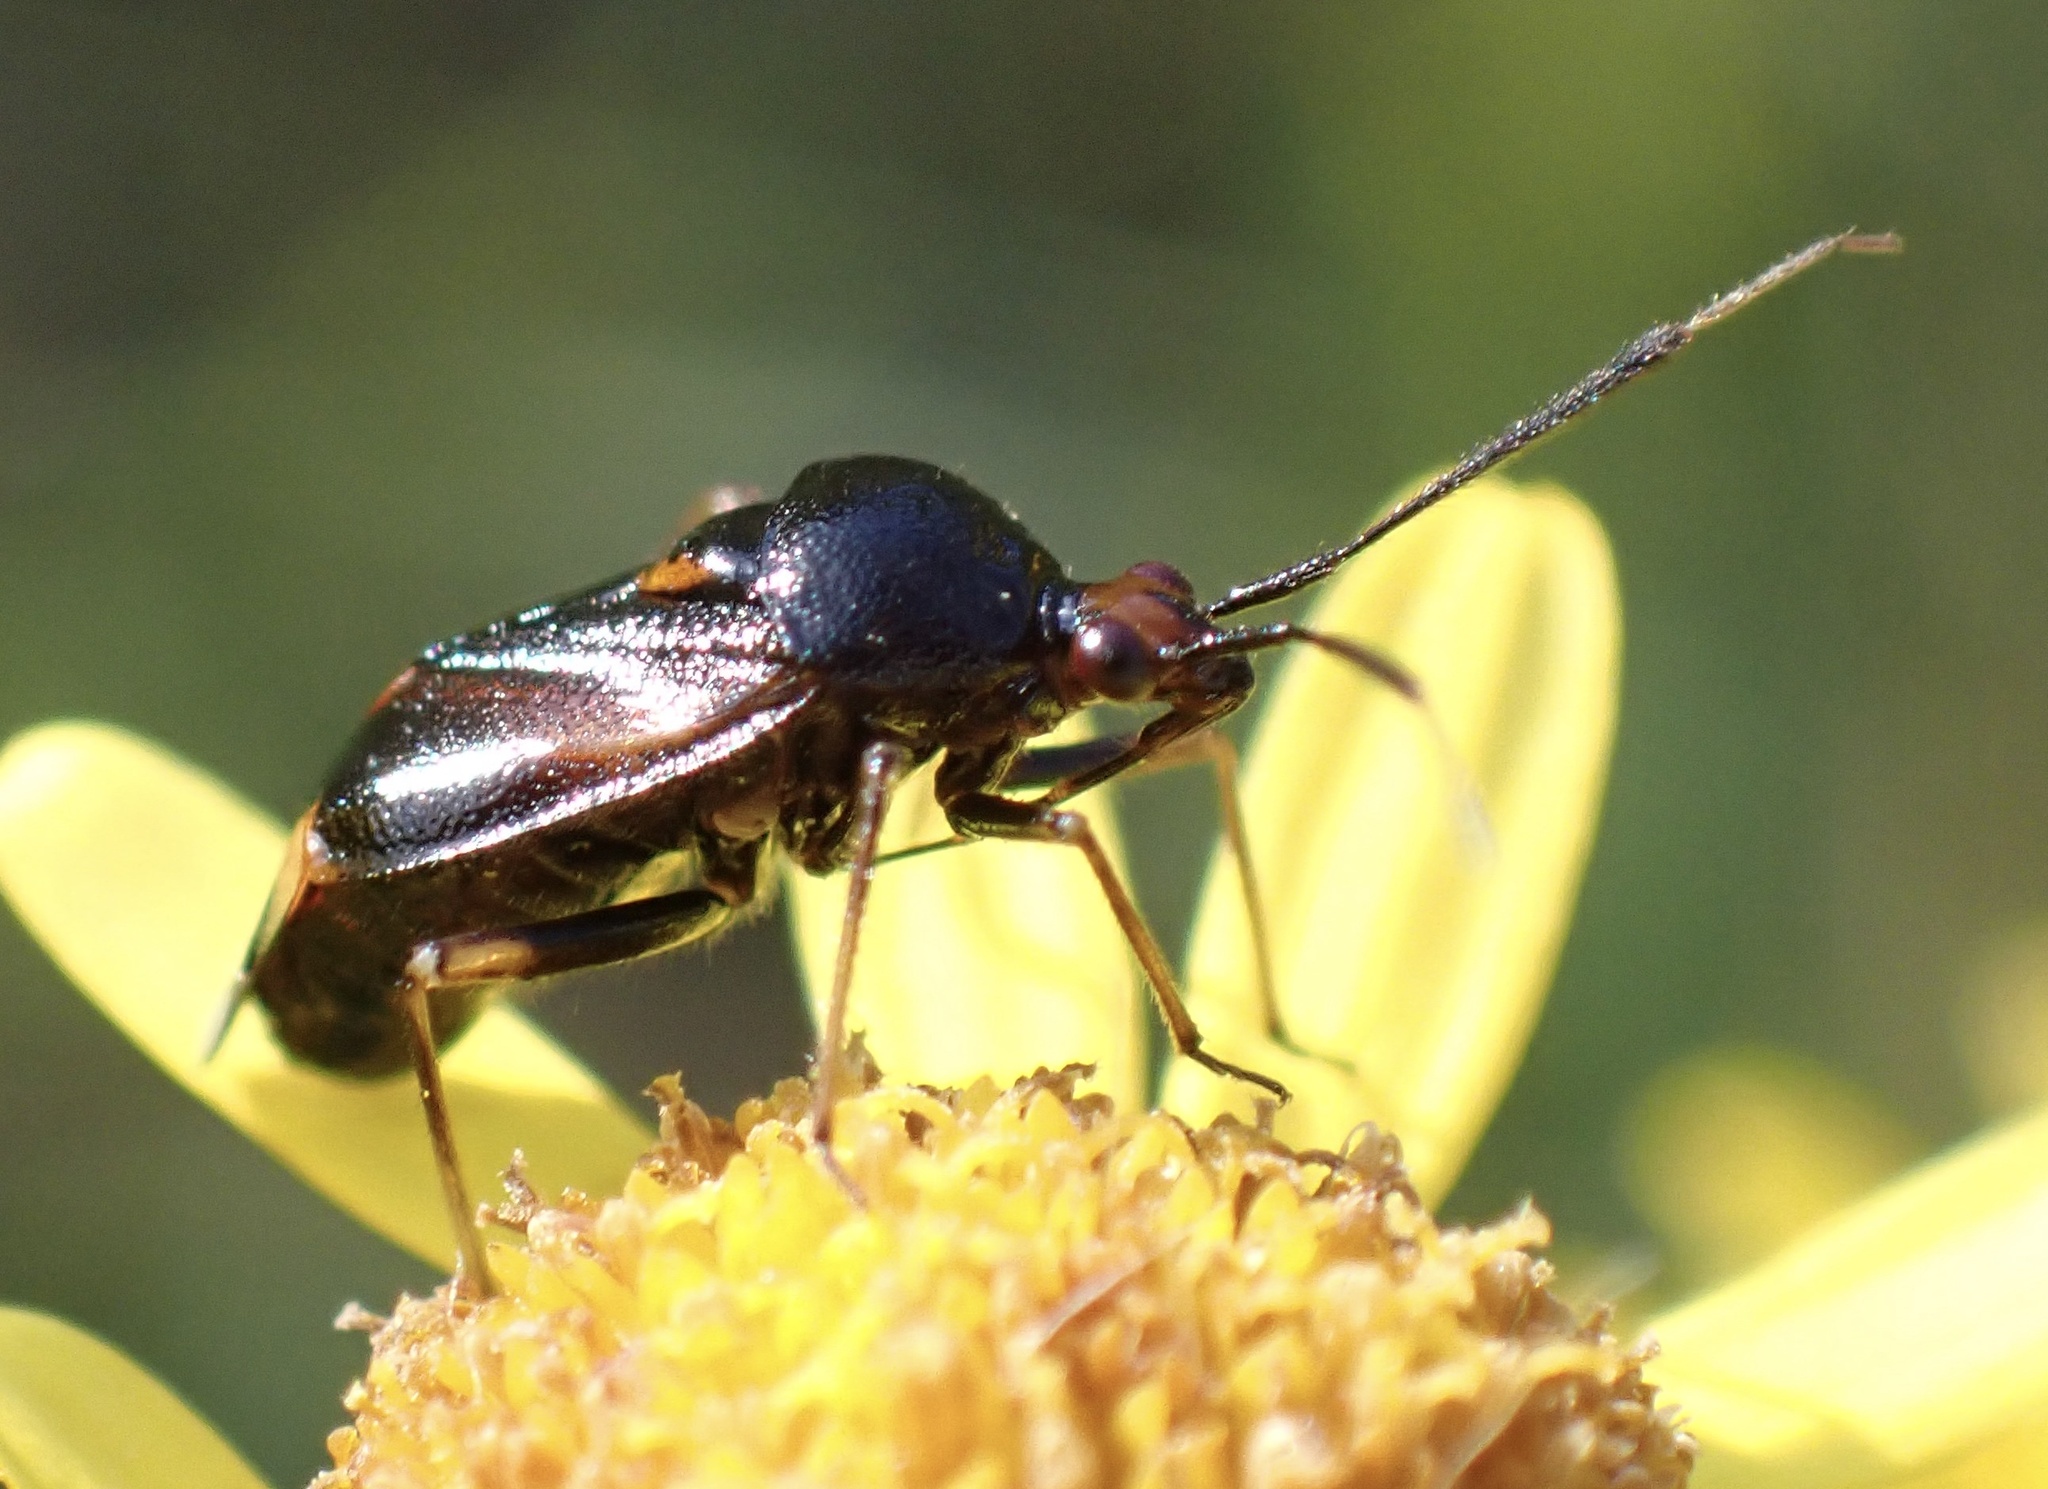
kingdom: Animalia
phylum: Arthropoda
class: Insecta
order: Hemiptera
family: Miridae
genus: Deraeocoris
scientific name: Deraeocoris ruber
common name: Plant bug
